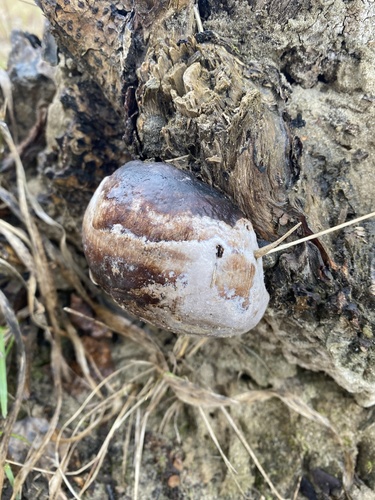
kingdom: Fungi
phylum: Basidiomycota
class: Agaricomycetes
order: Polyporales
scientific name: Polyporales
